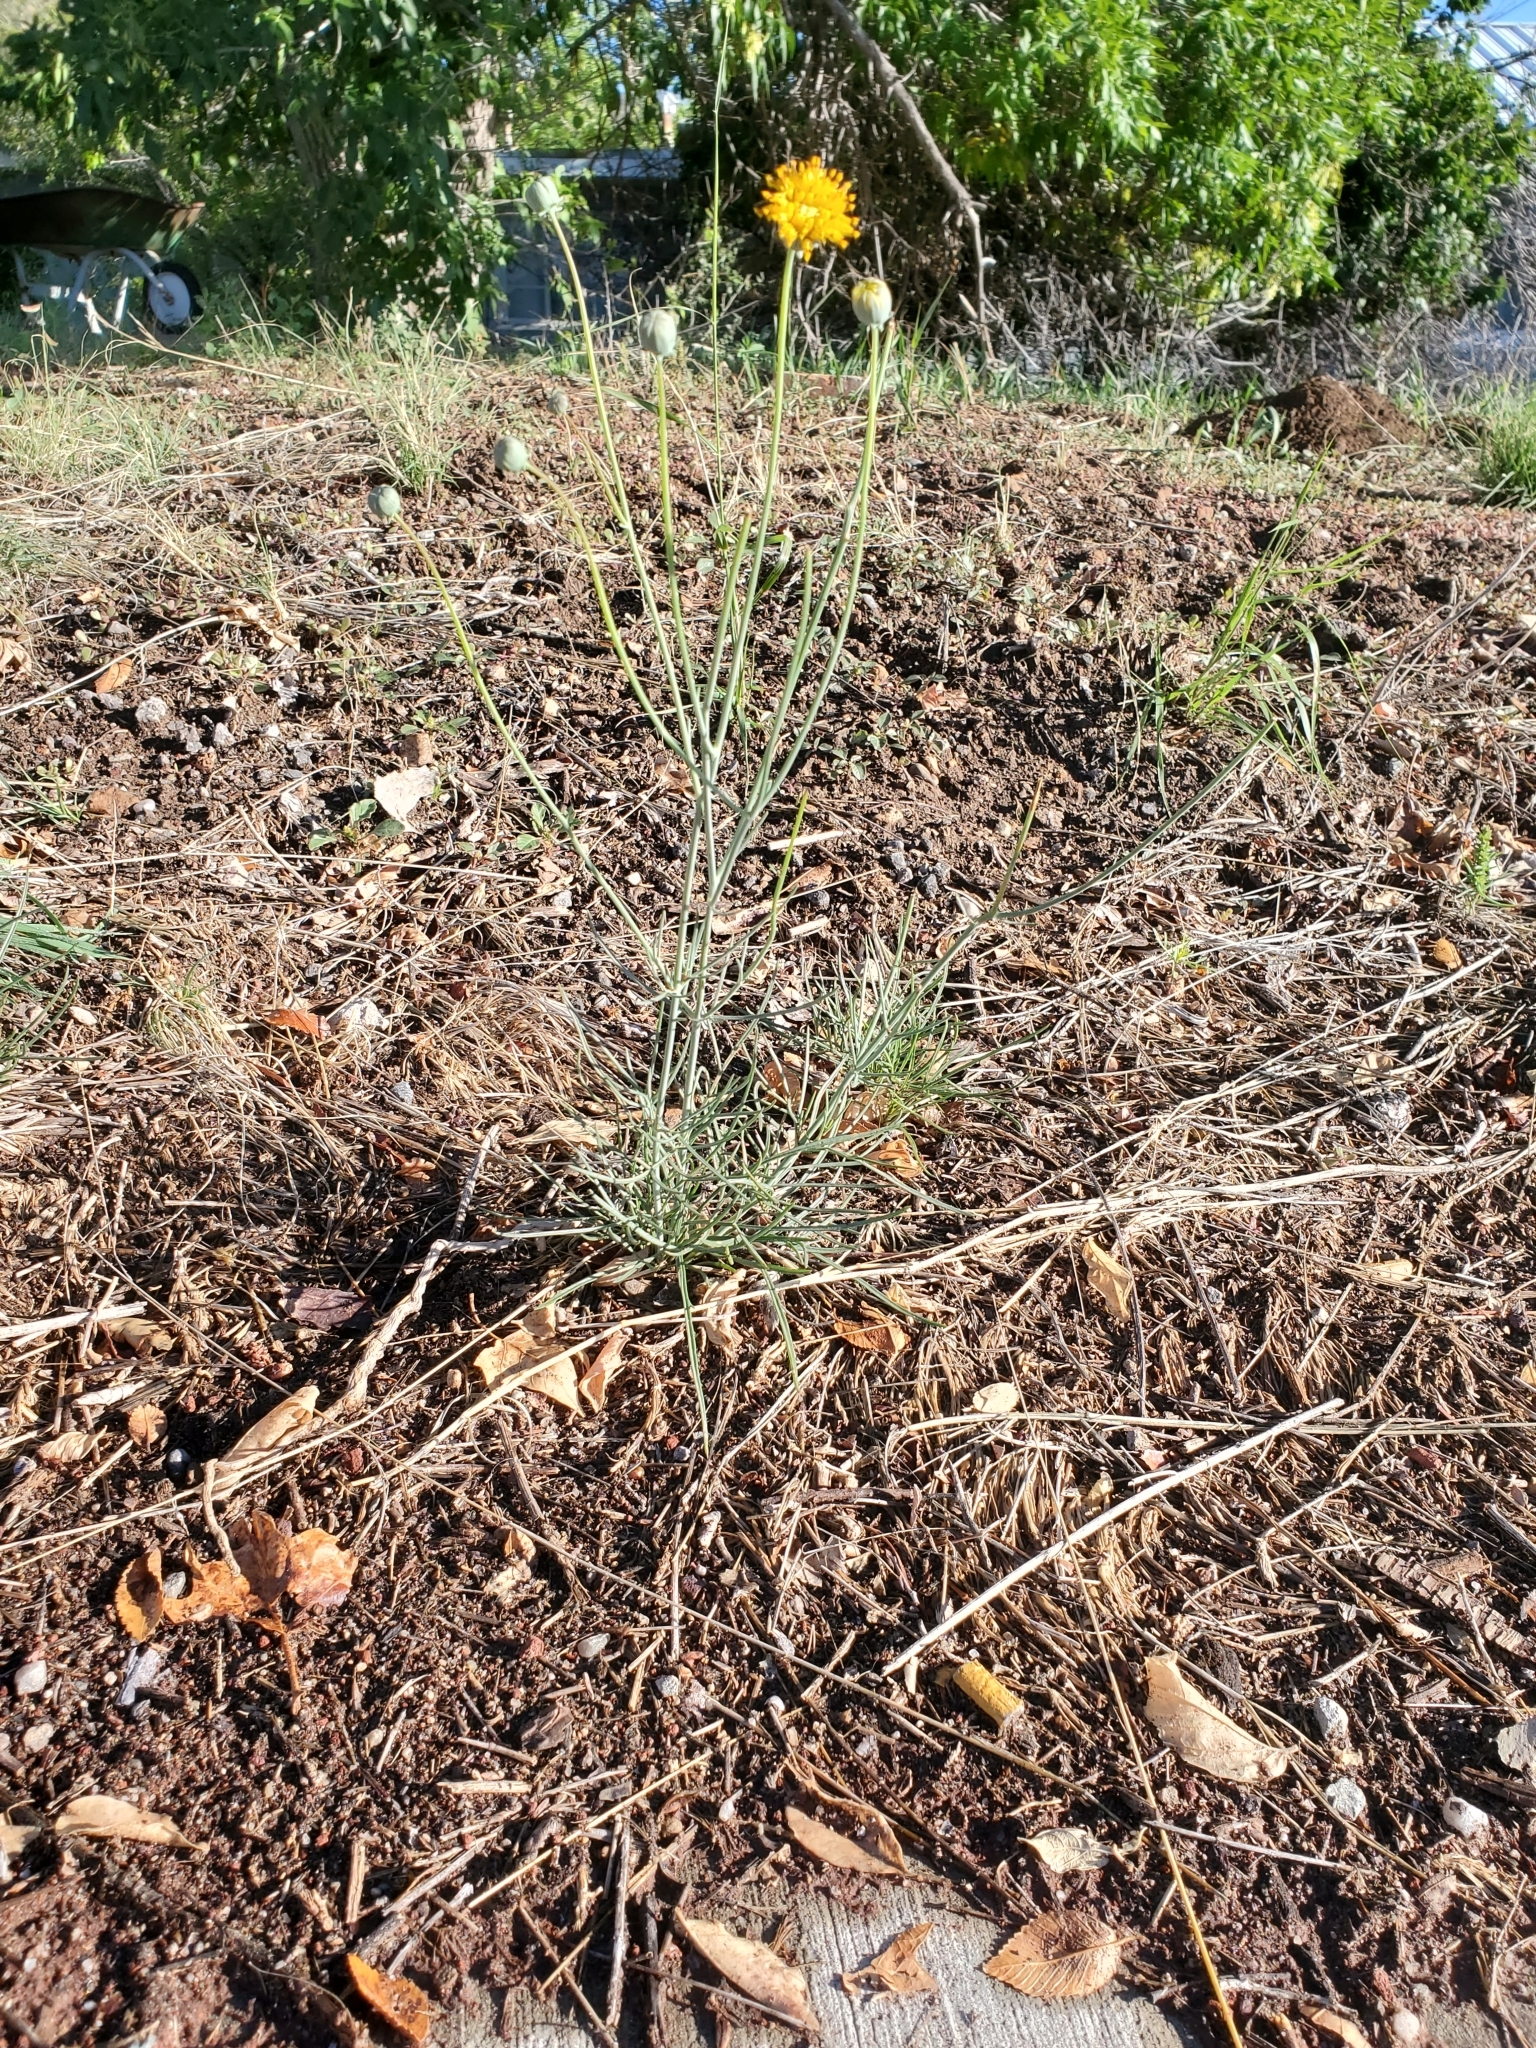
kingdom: Plantae
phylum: Tracheophyta
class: Magnoliopsida
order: Asterales
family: Asteraceae
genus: Thelesperma
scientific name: Thelesperma megapotamicum
